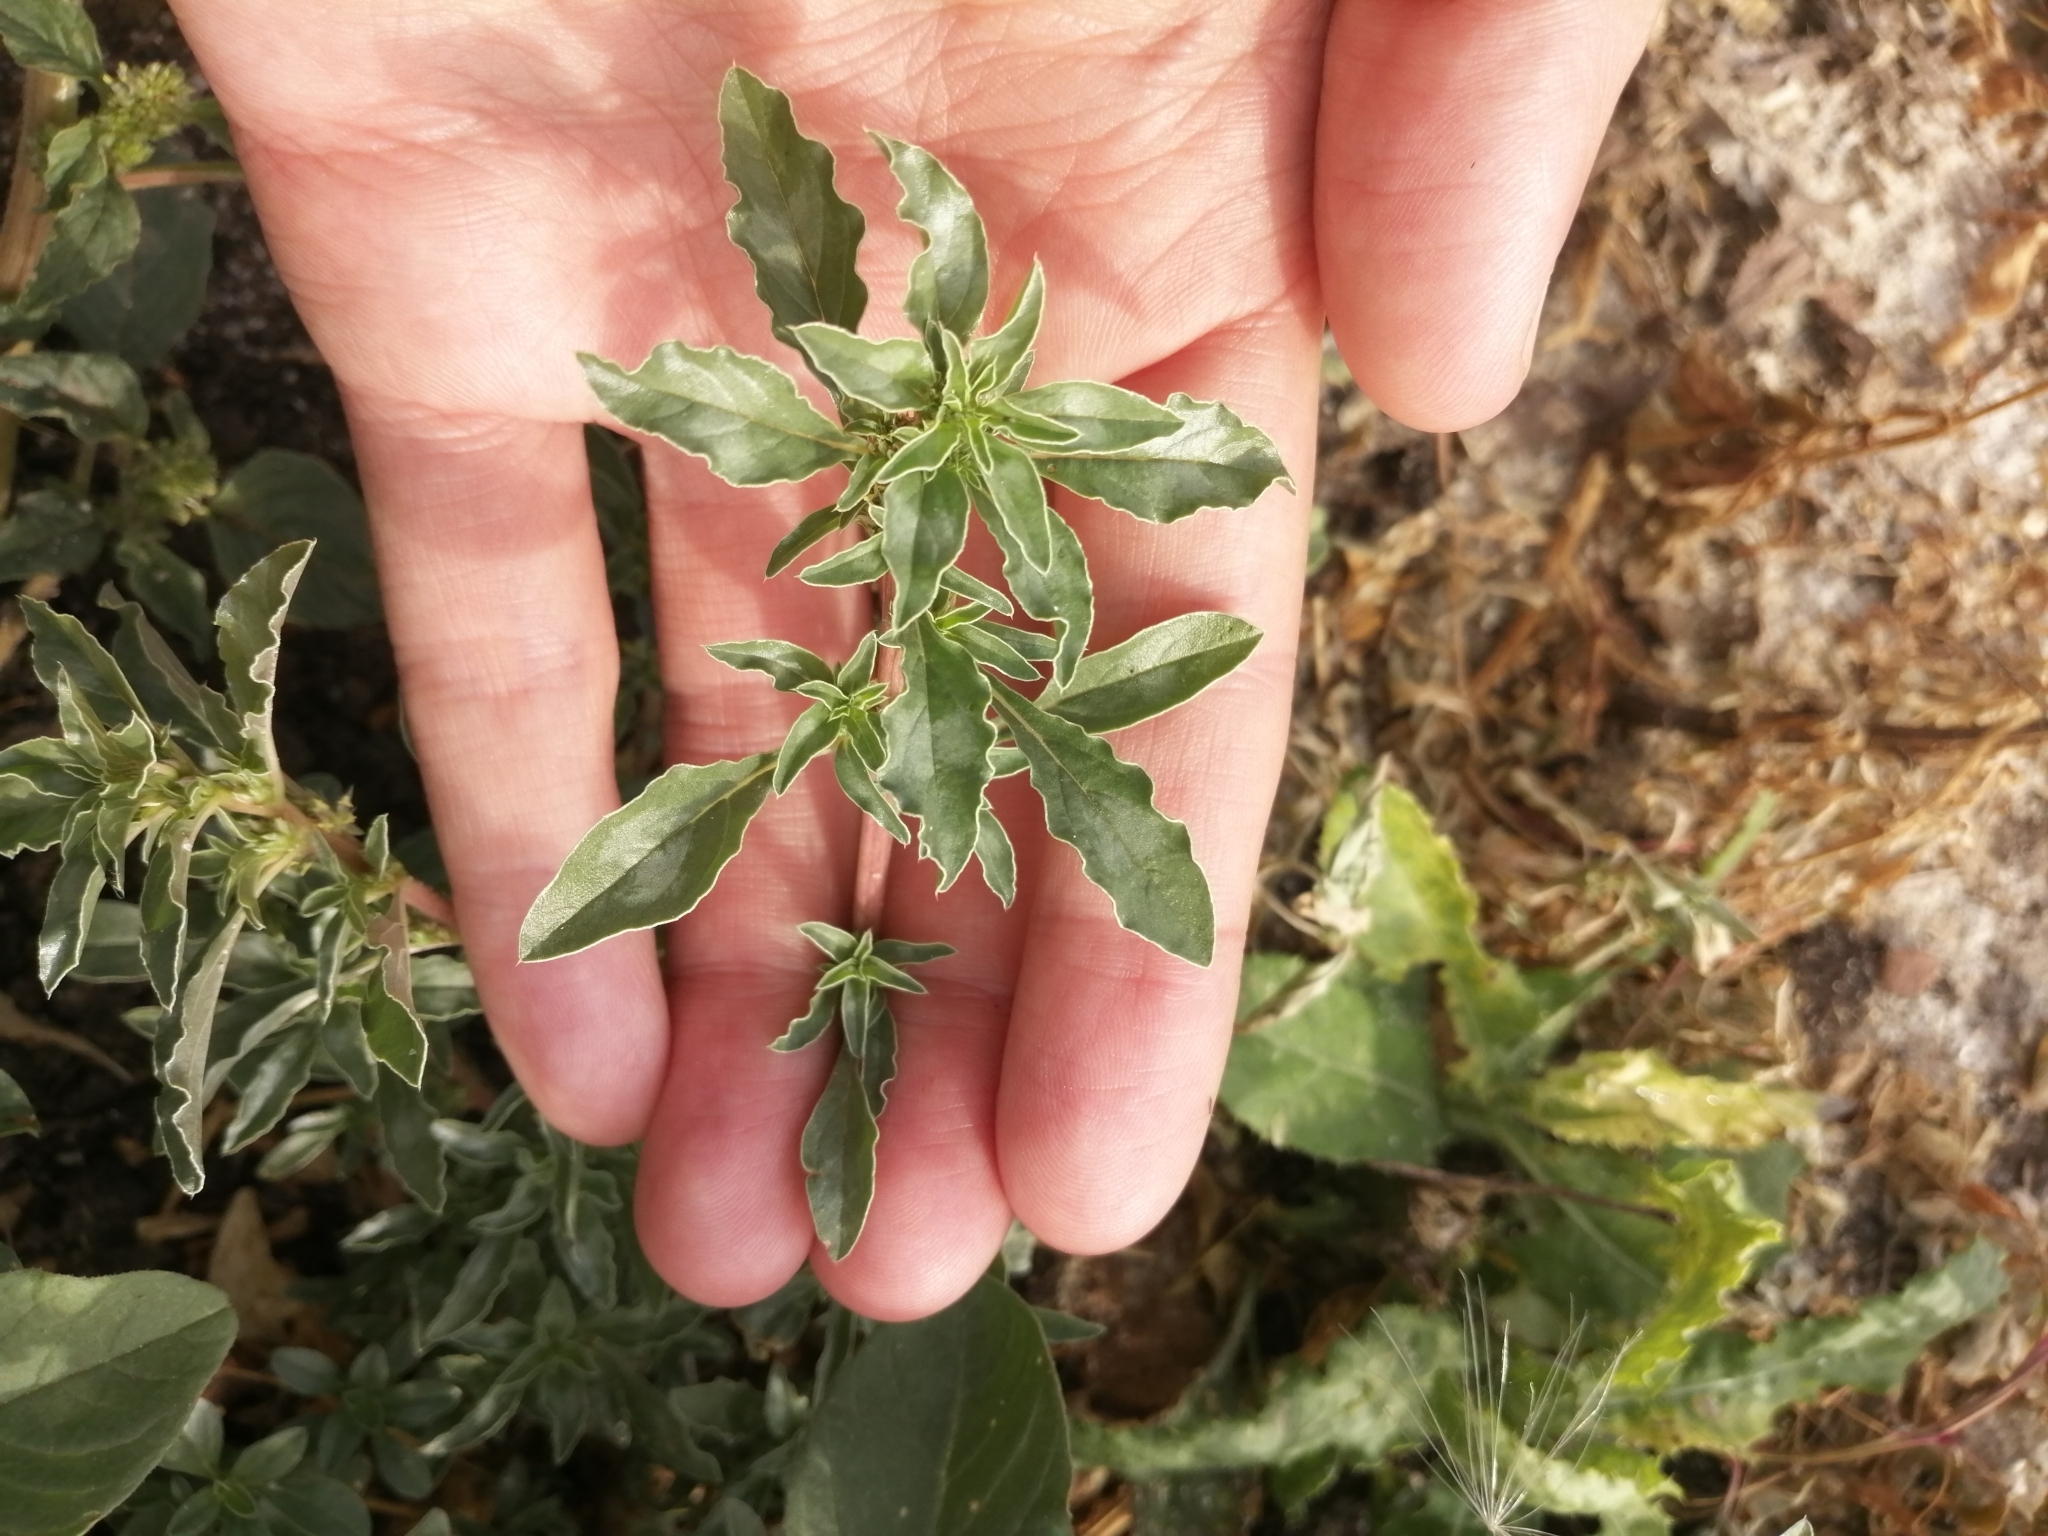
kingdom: Plantae
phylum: Tracheophyta
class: Magnoliopsida
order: Caryophyllales
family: Amaranthaceae
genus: Amaranthus
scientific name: Amaranthus blitoides
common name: Prostrate pigweed
